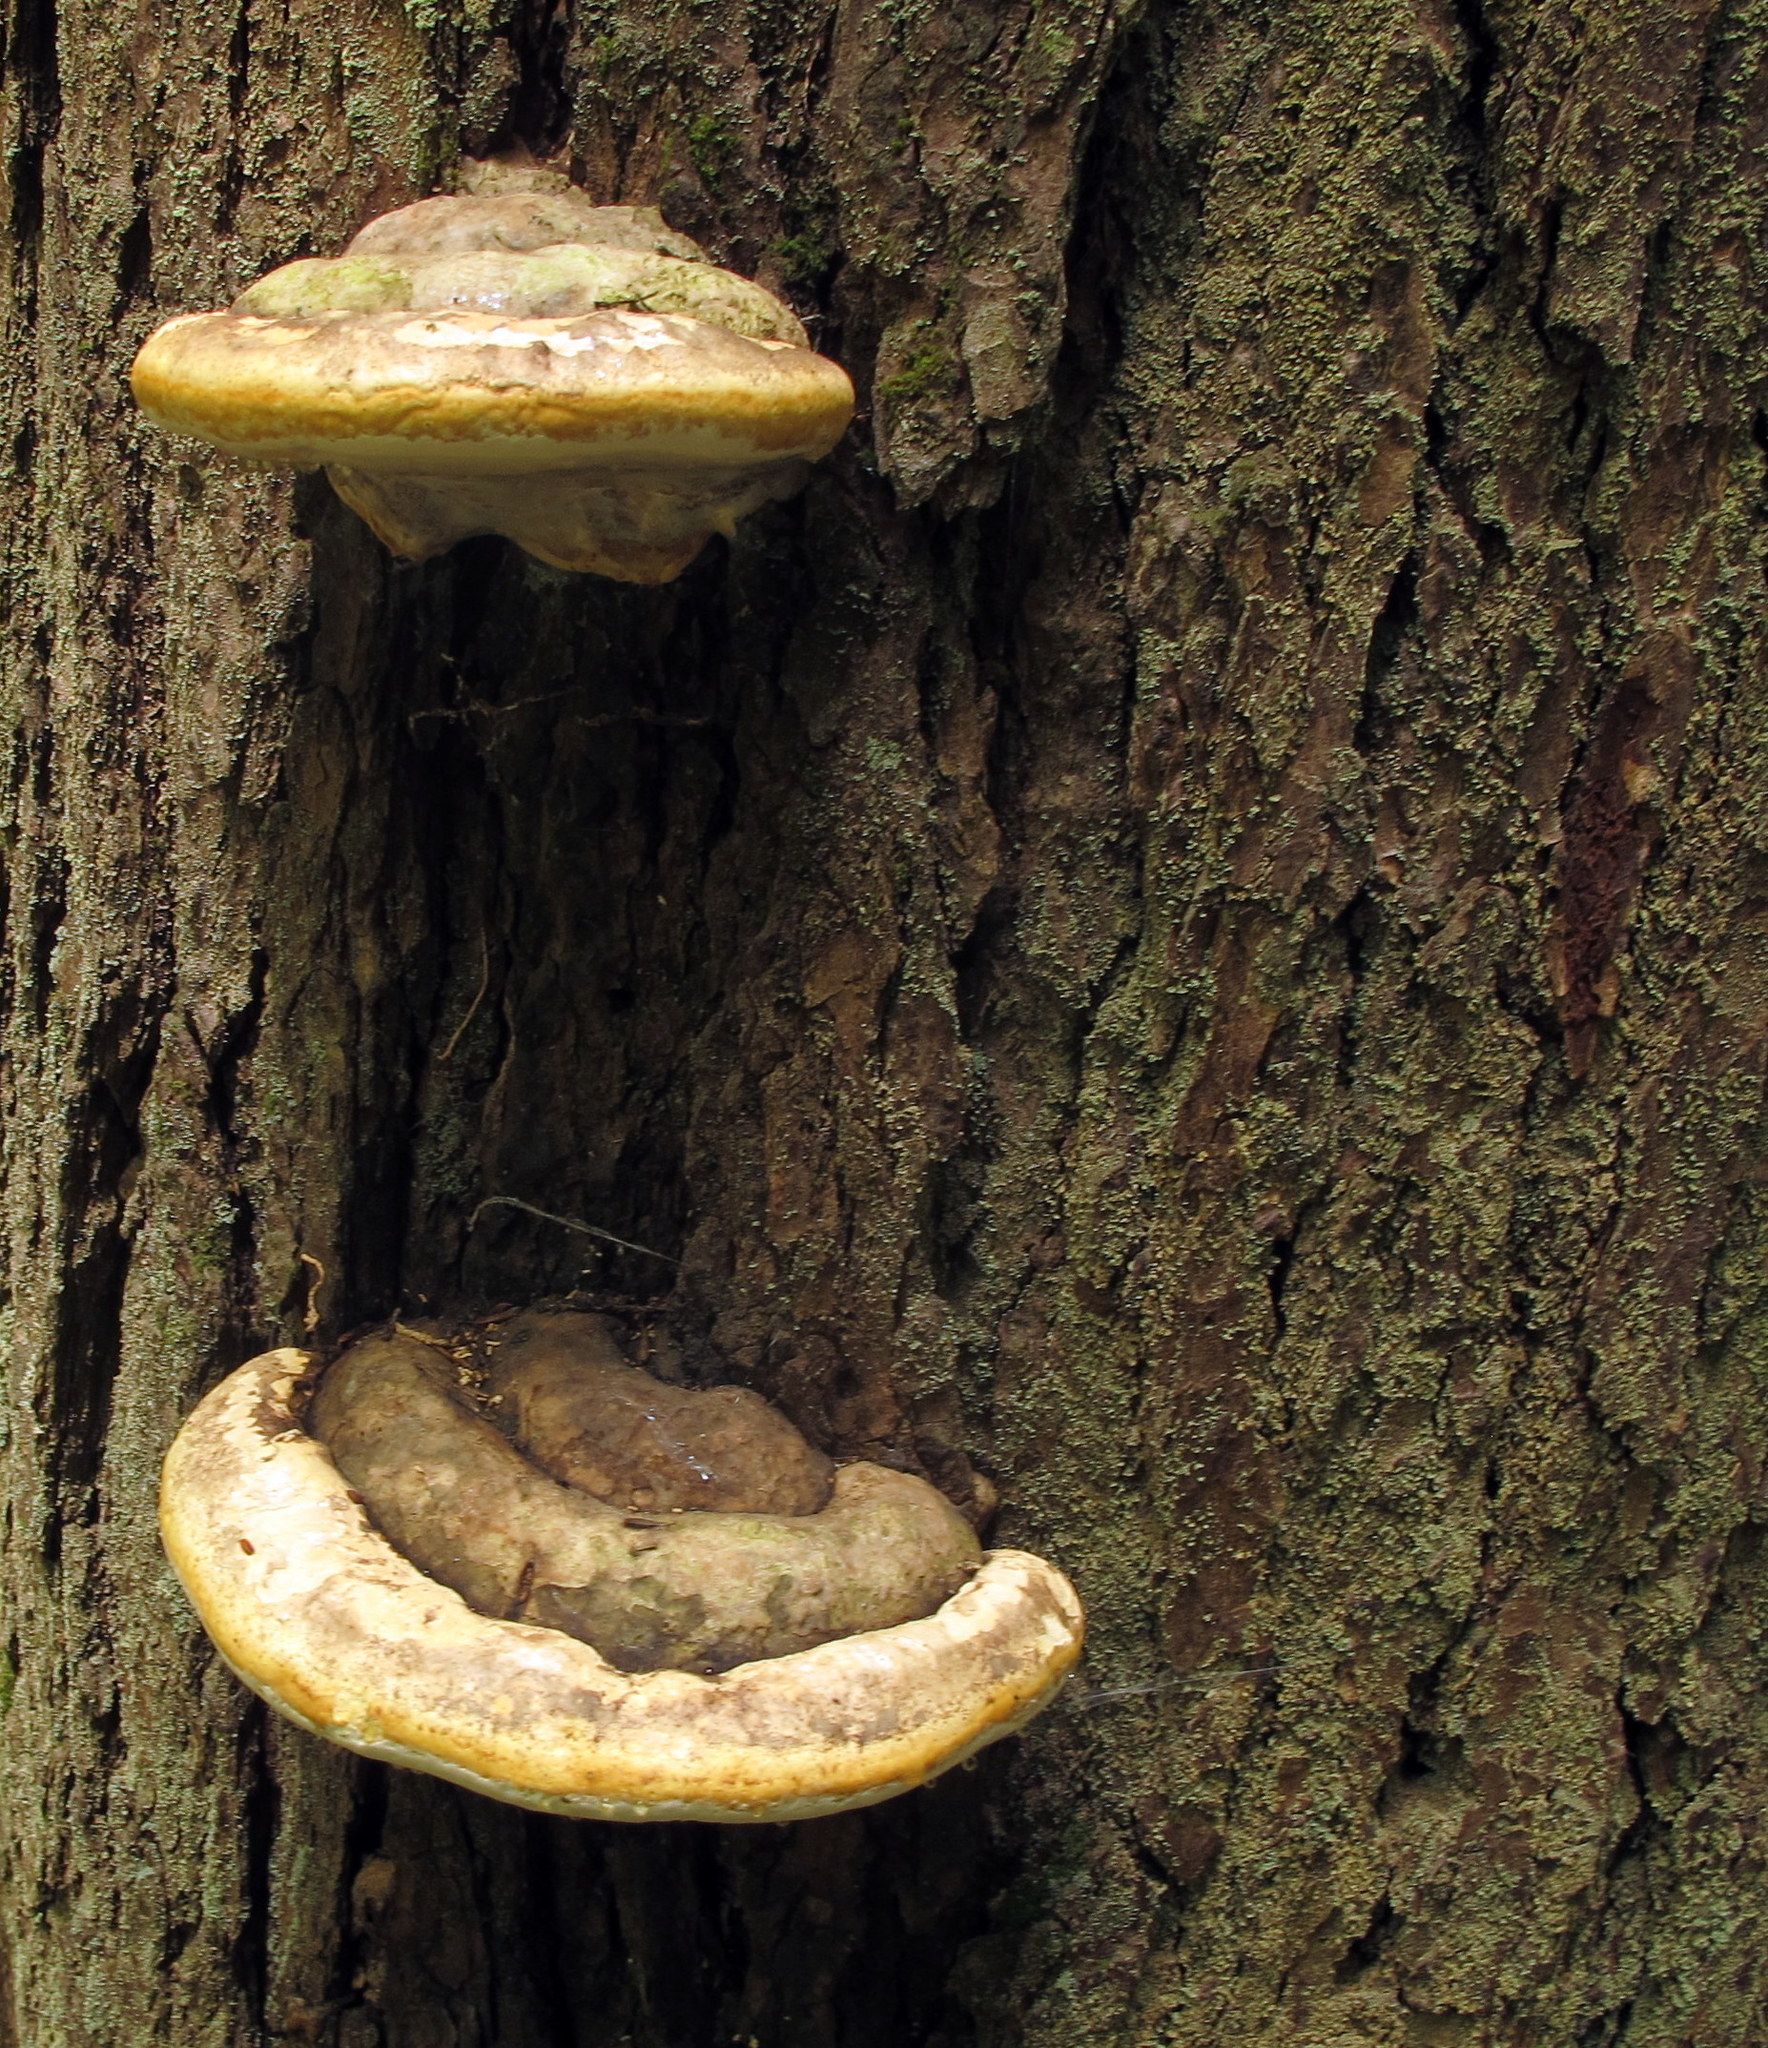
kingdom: Fungi
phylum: Basidiomycota
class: Agaricomycetes
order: Polyporales
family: Fomitopsidaceae
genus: Fomitopsis
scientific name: Fomitopsis ochracea
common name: American brown fomitopsis
